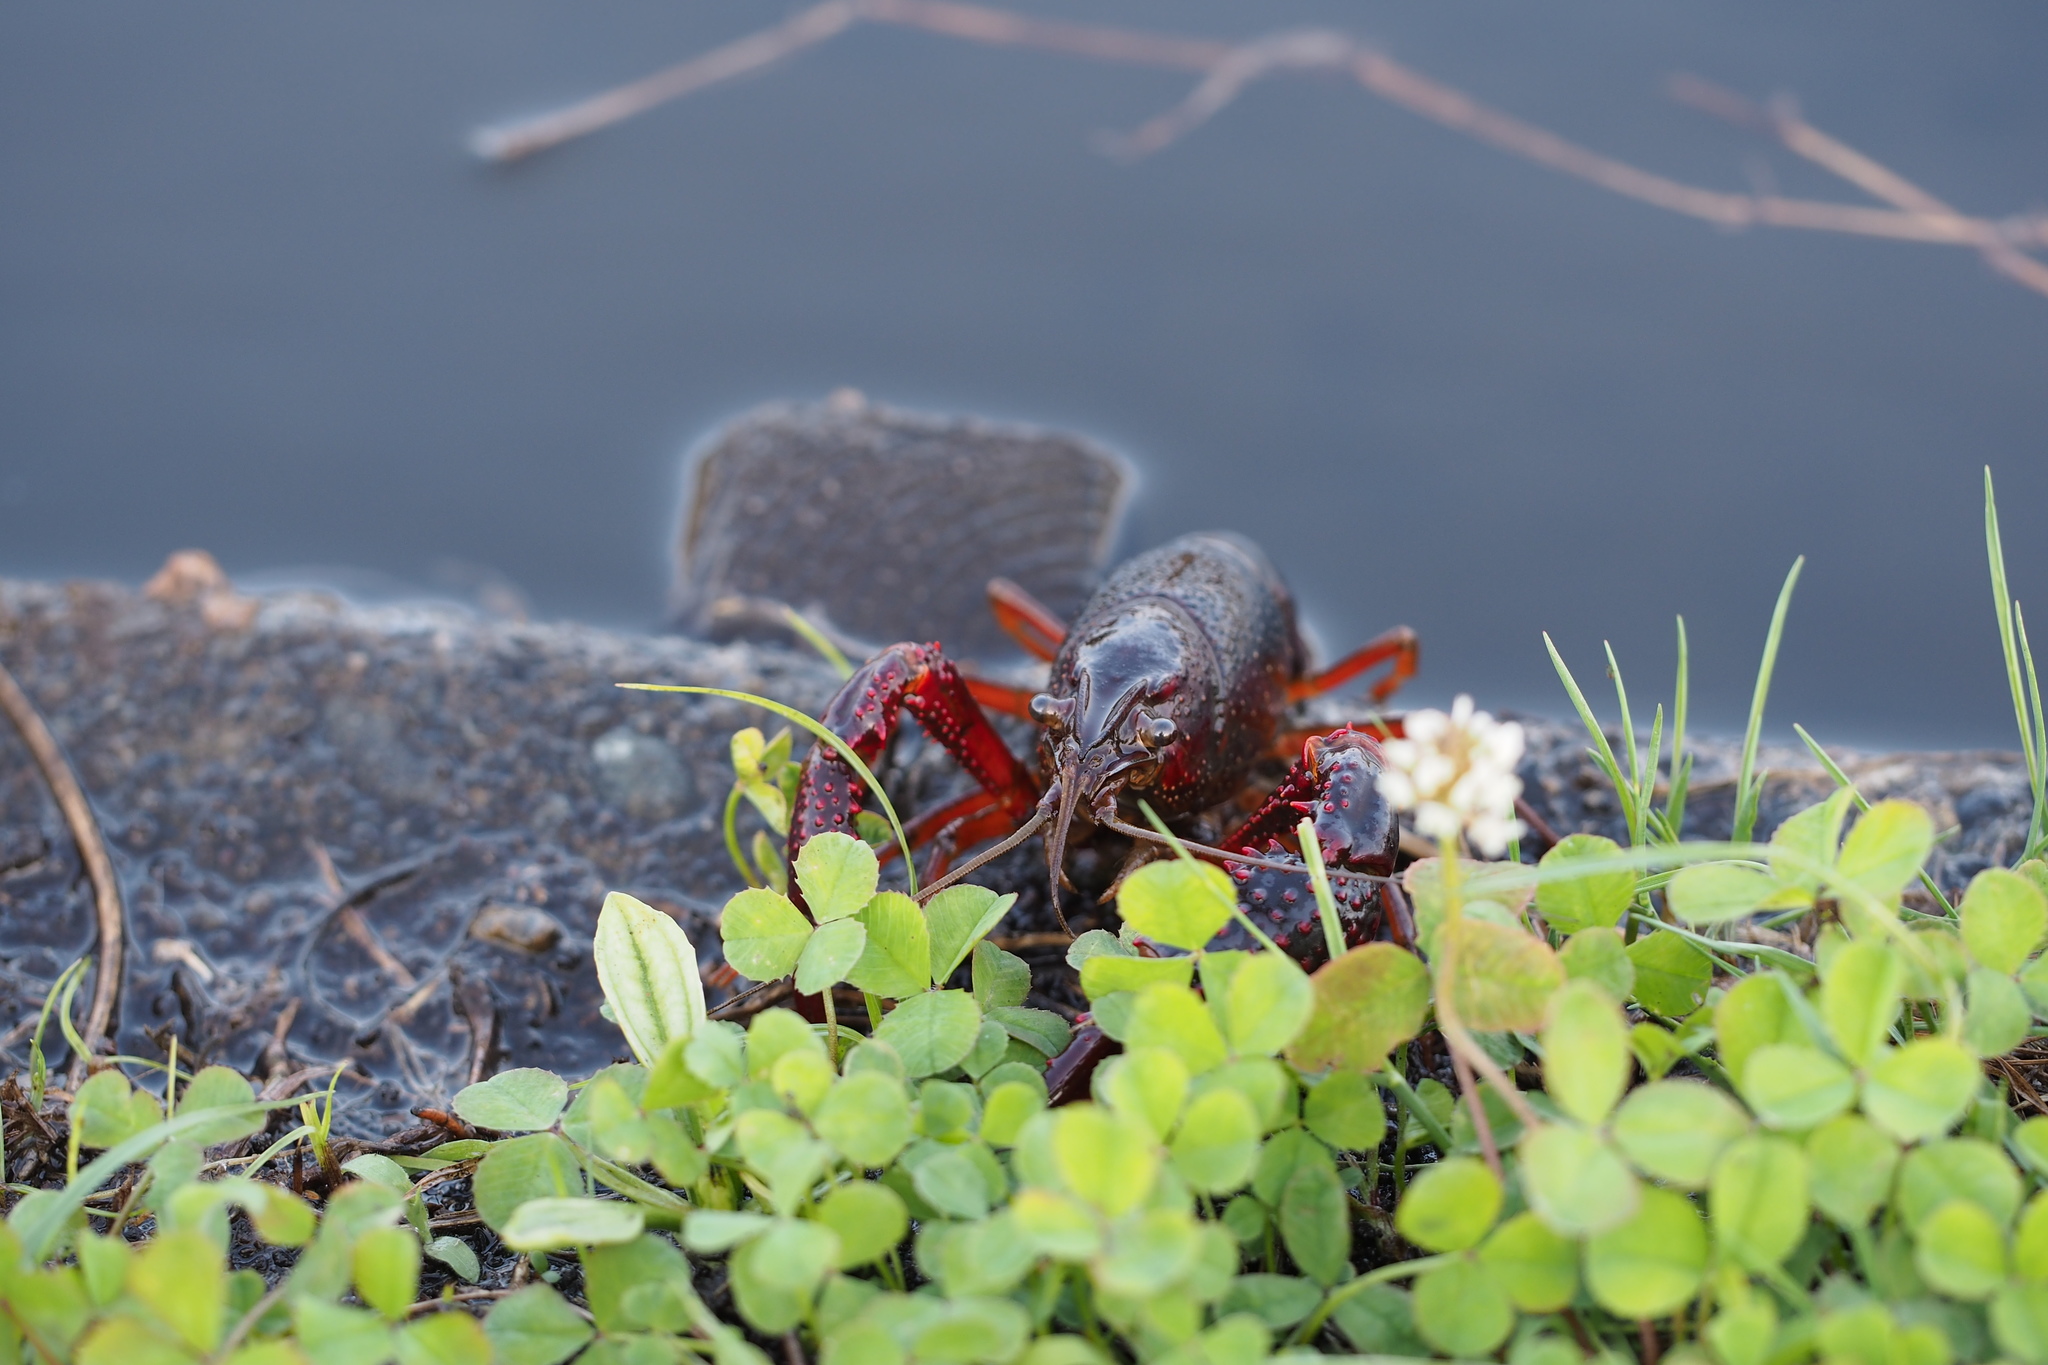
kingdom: Animalia
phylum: Arthropoda
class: Malacostraca
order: Decapoda
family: Cambaridae
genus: Procambarus
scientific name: Procambarus clarkii
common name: Red swamp crayfish
